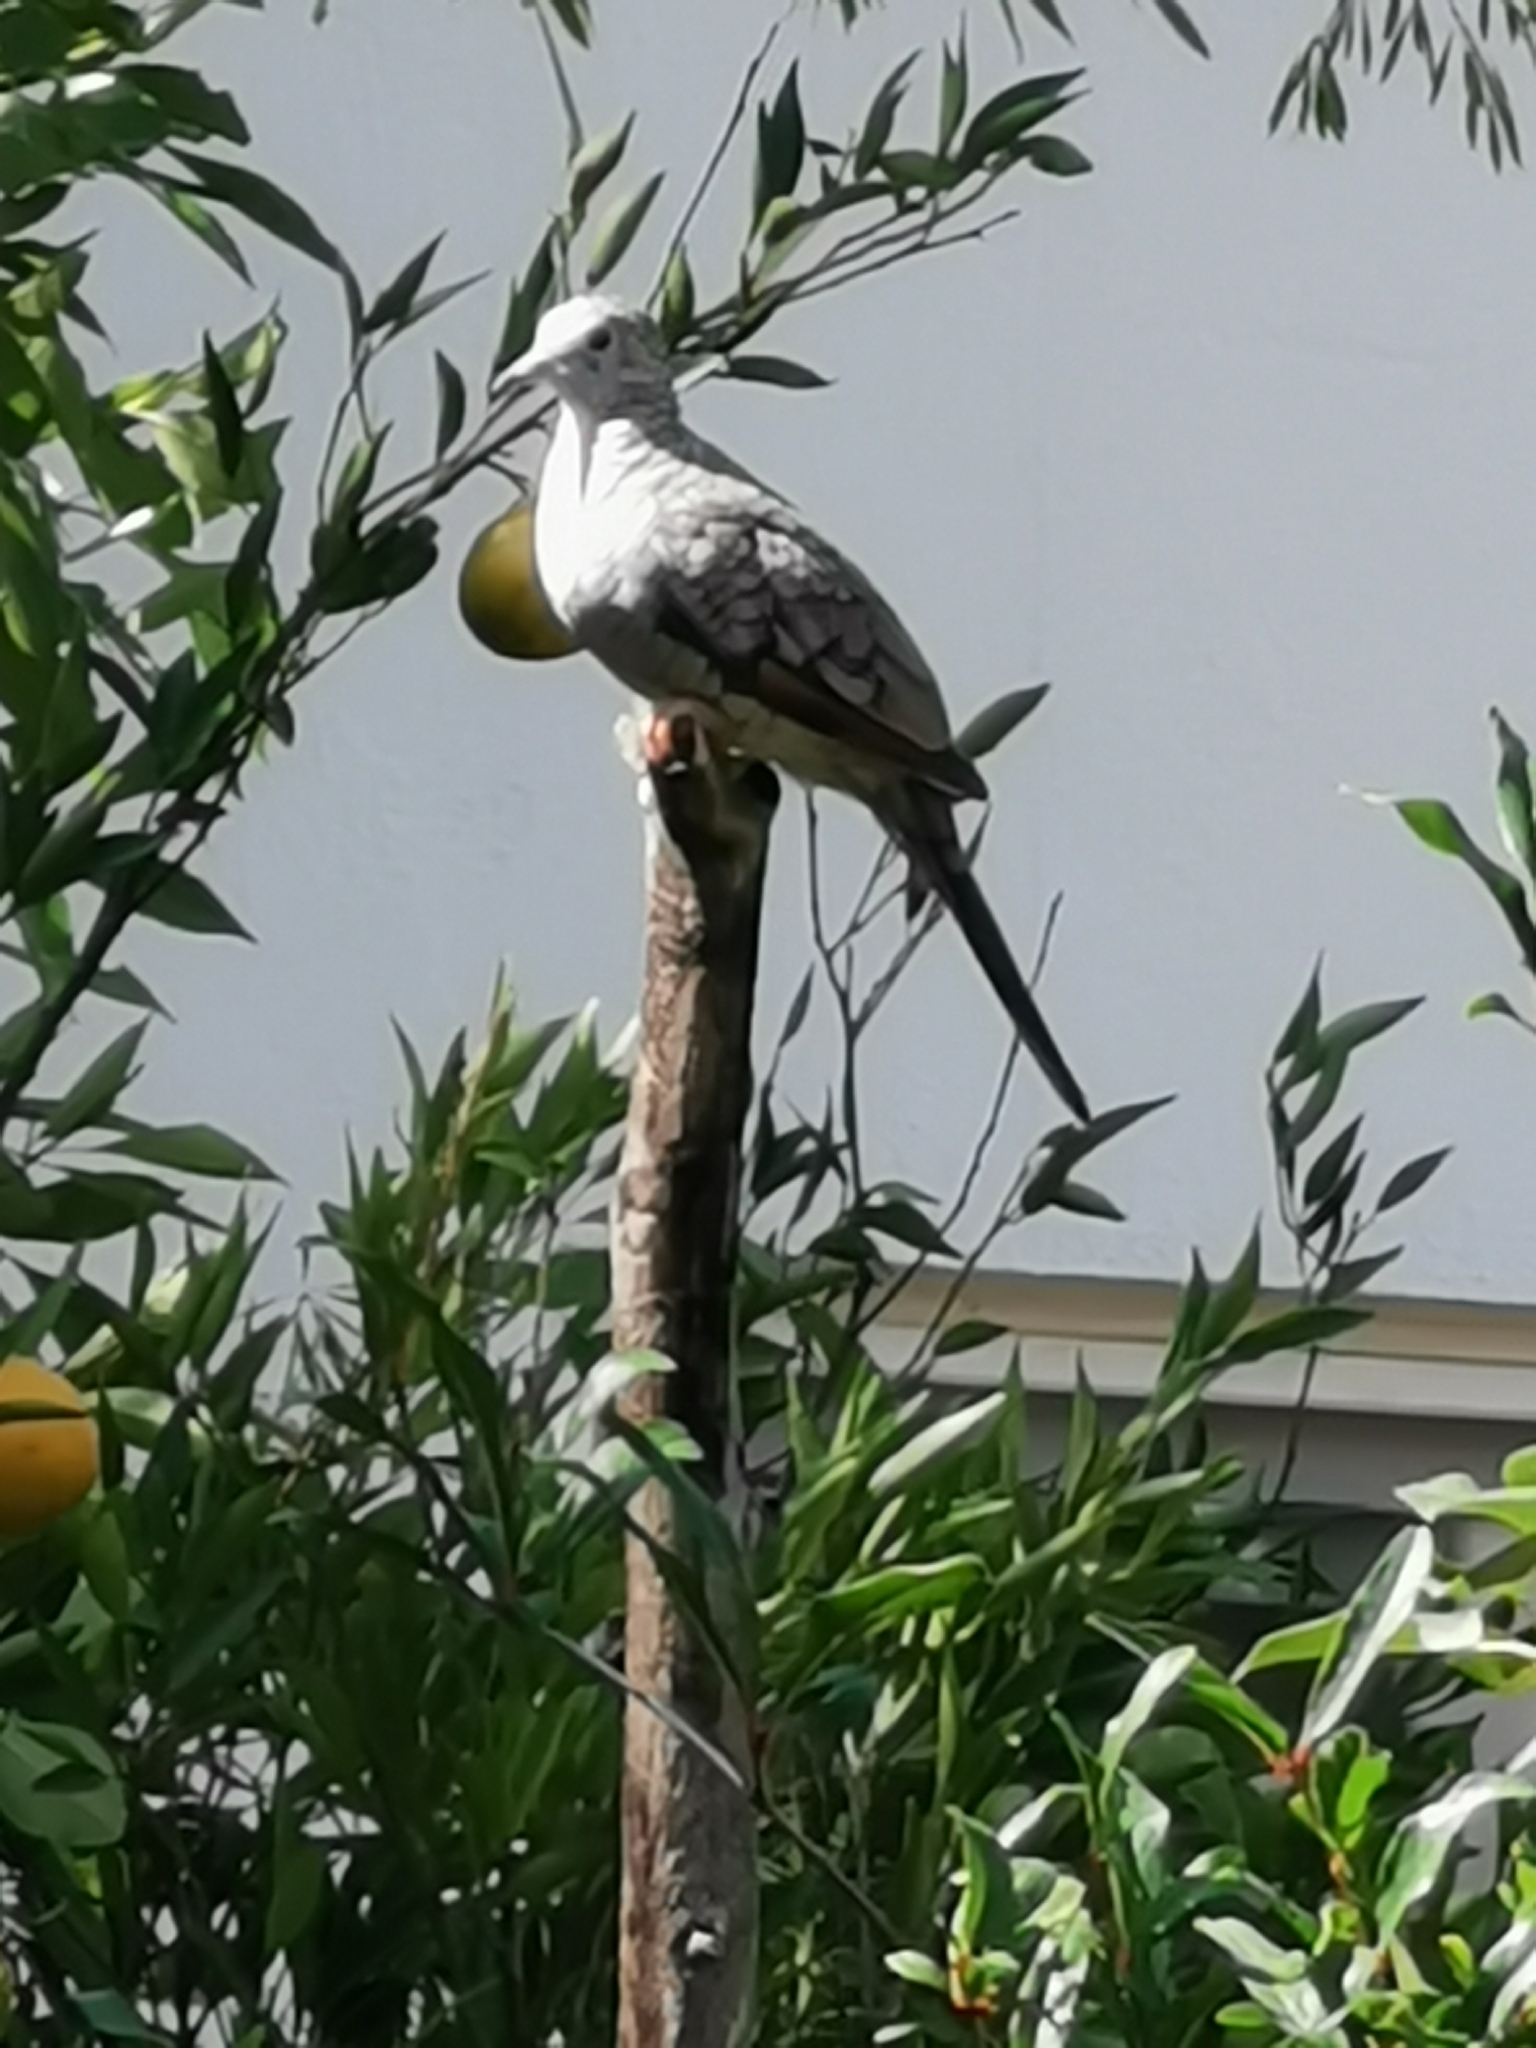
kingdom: Animalia
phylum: Chordata
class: Aves
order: Columbiformes
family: Columbidae
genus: Columbina
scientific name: Columbina inca
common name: Inca dove
